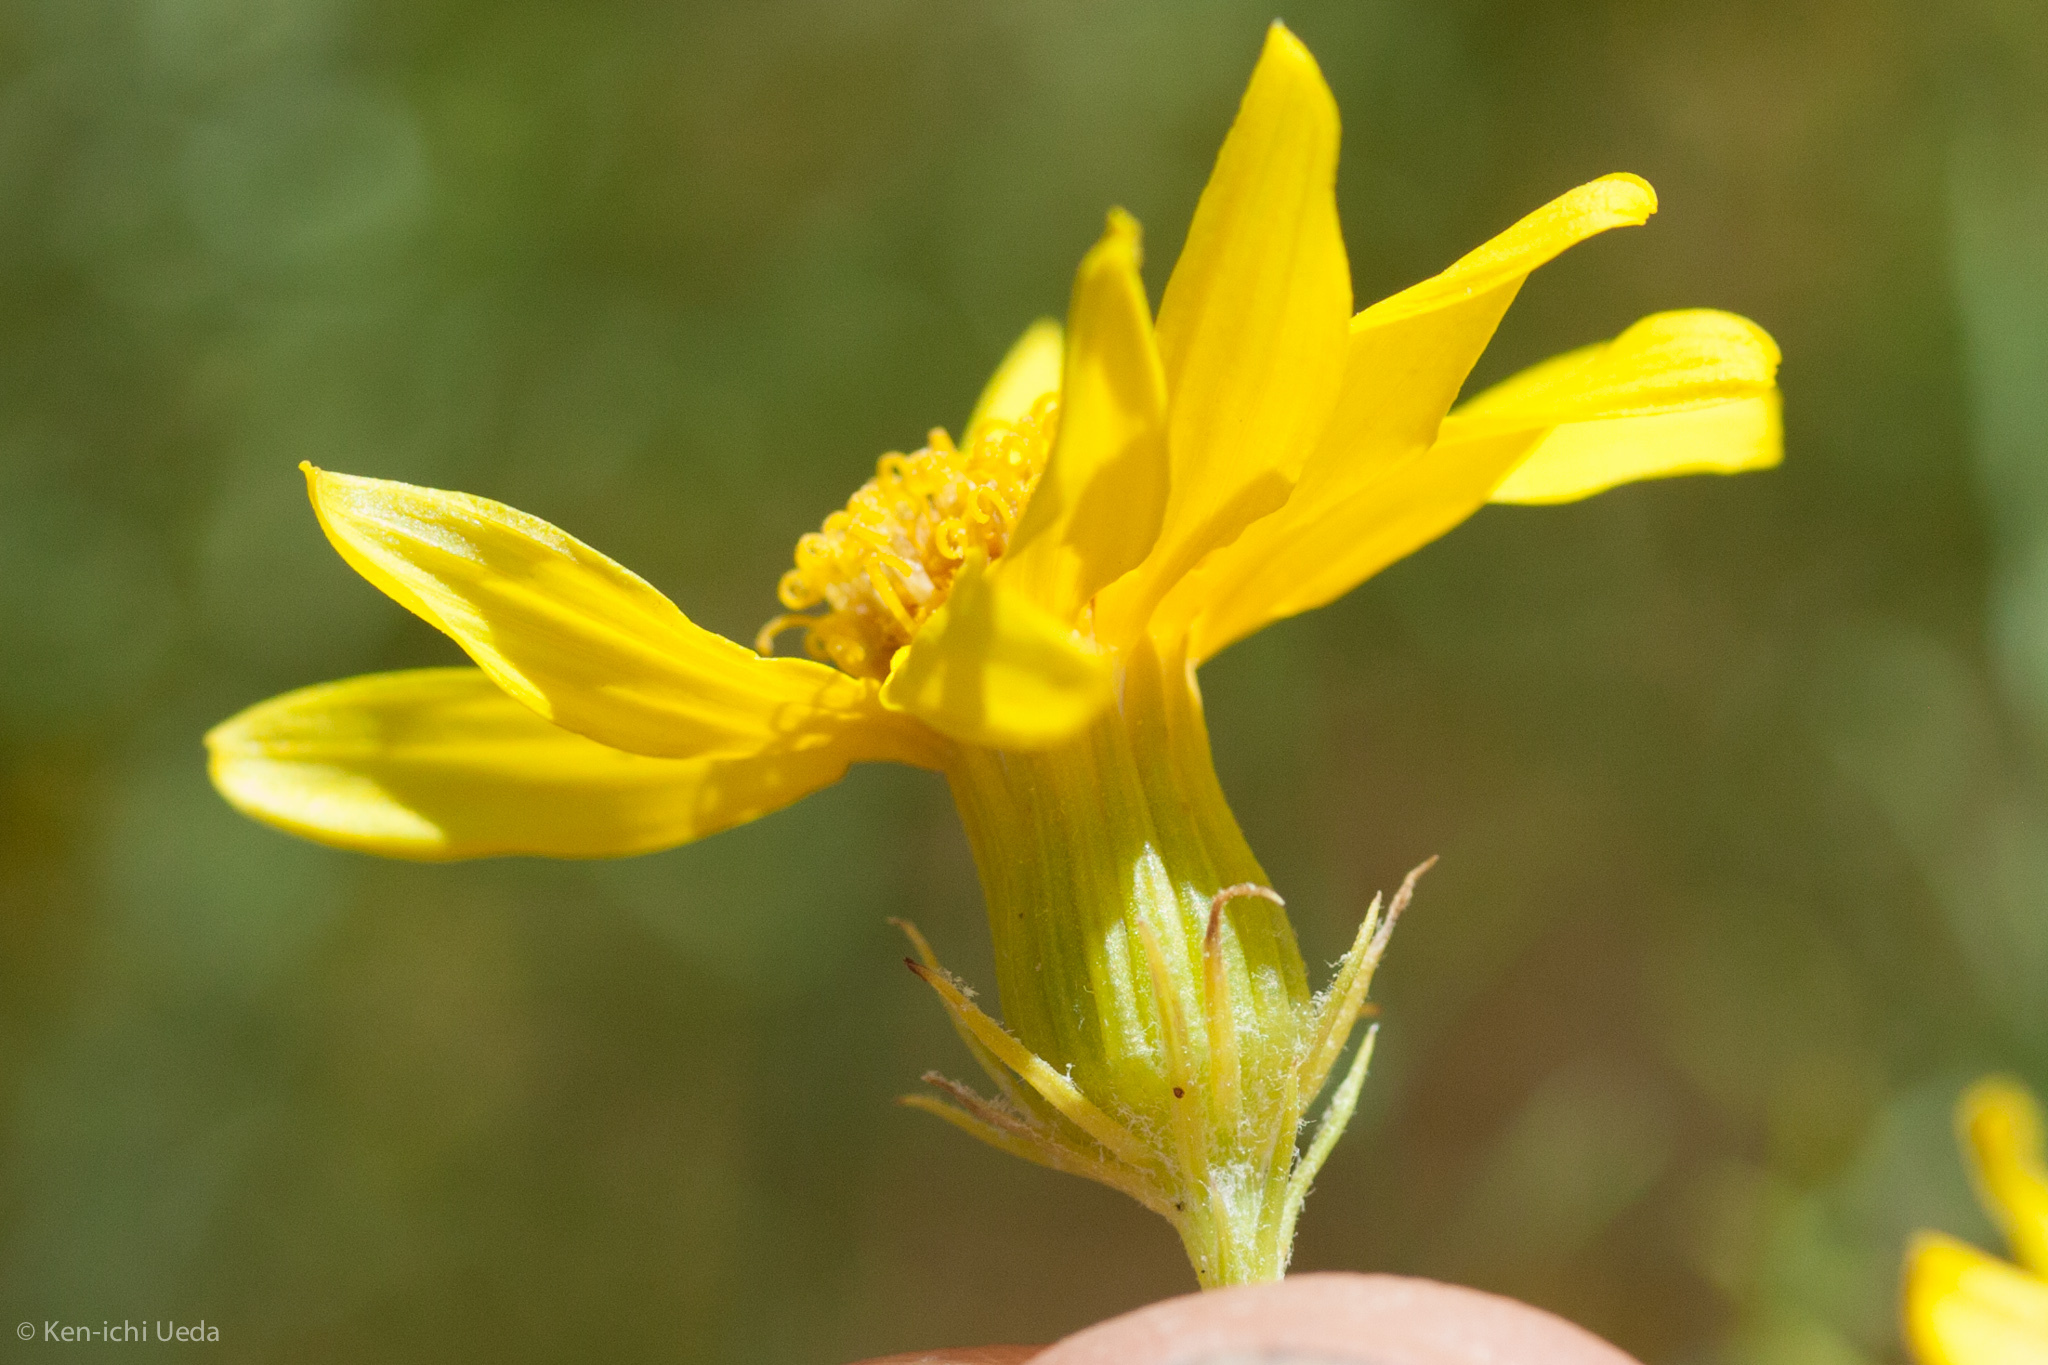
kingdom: Plantae
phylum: Tracheophyta
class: Magnoliopsida
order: Asterales
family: Asteraceae
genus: Senecio
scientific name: Senecio flaccidus
